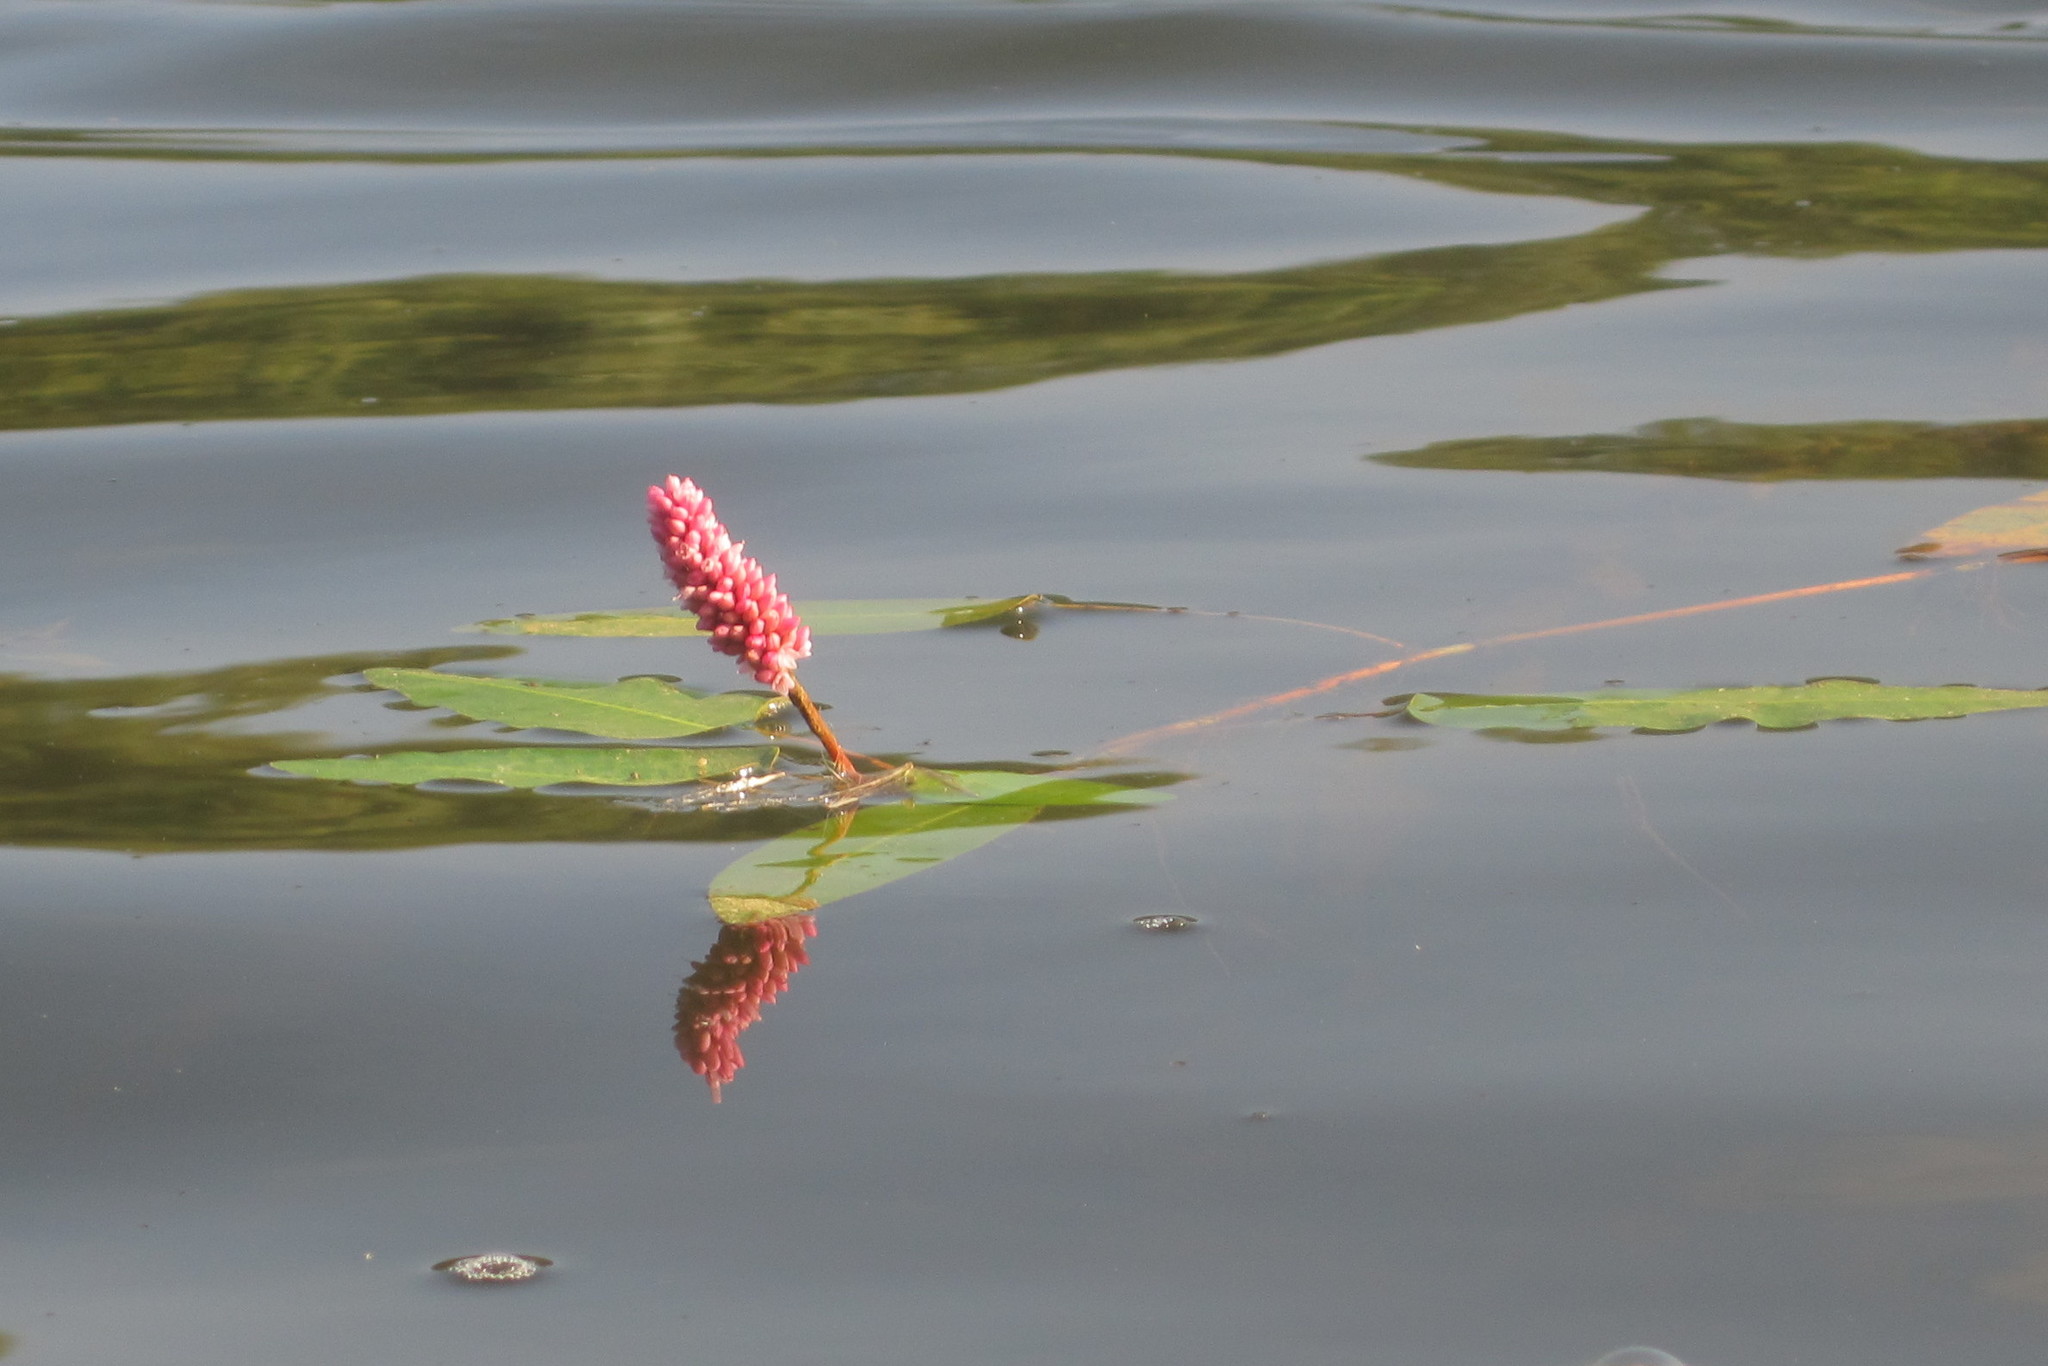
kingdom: Plantae
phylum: Tracheophyta
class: Magnoliopsida
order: Caryophyllales
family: Polygonaceae
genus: Persicaria
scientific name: Persicaria amphibia
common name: Amphibious bistort
